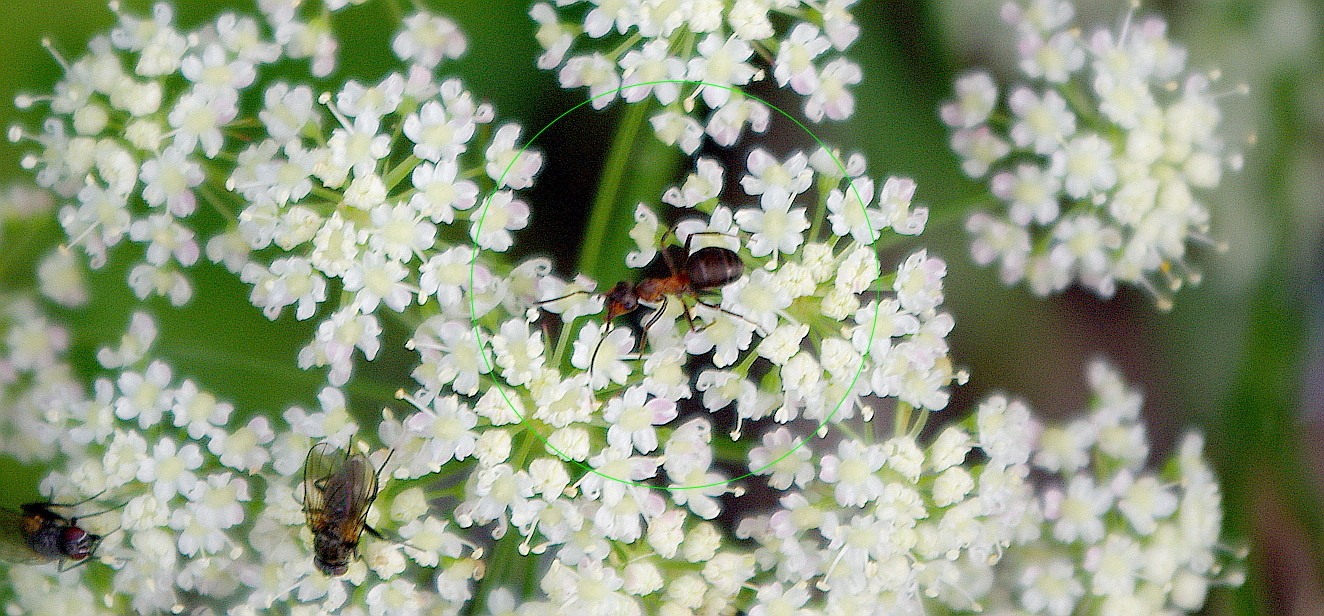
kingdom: Animalia
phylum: Arthropoda
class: Insecta
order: Hymenoptera
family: Formicidae
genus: Formica
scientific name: Formica
